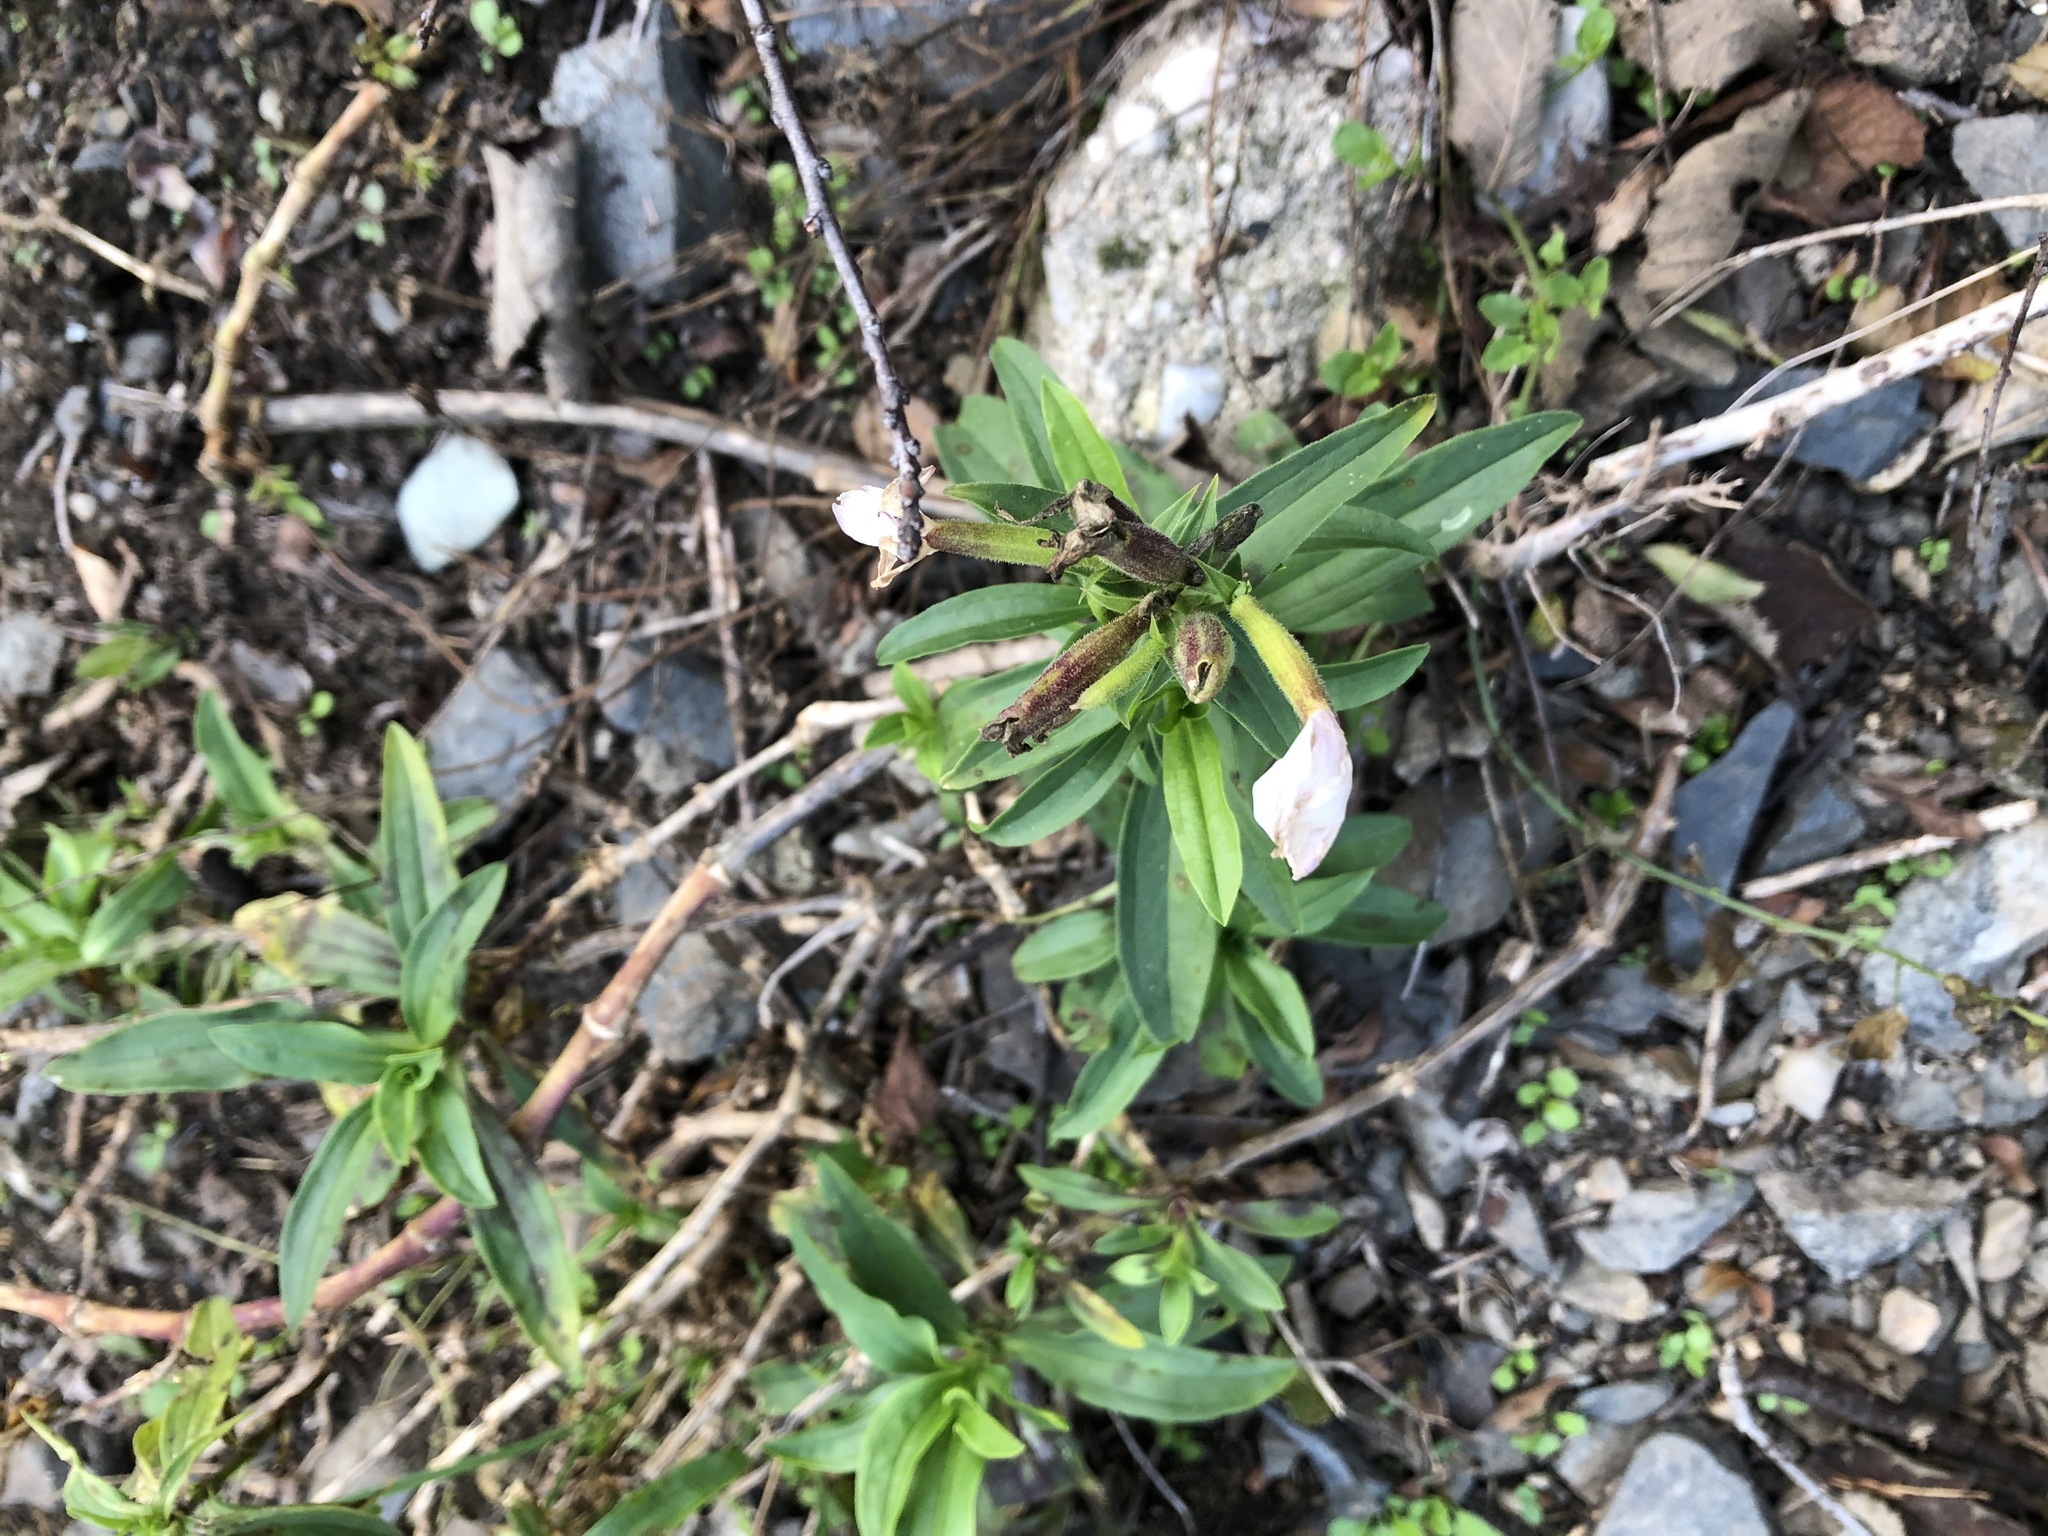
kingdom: Plantae
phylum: Tracheophyta
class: Magnoliopsida
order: Caryophyllales
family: Caryophyllaceae
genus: Saponaria
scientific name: Saponaria officinalis
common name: Soapwort
